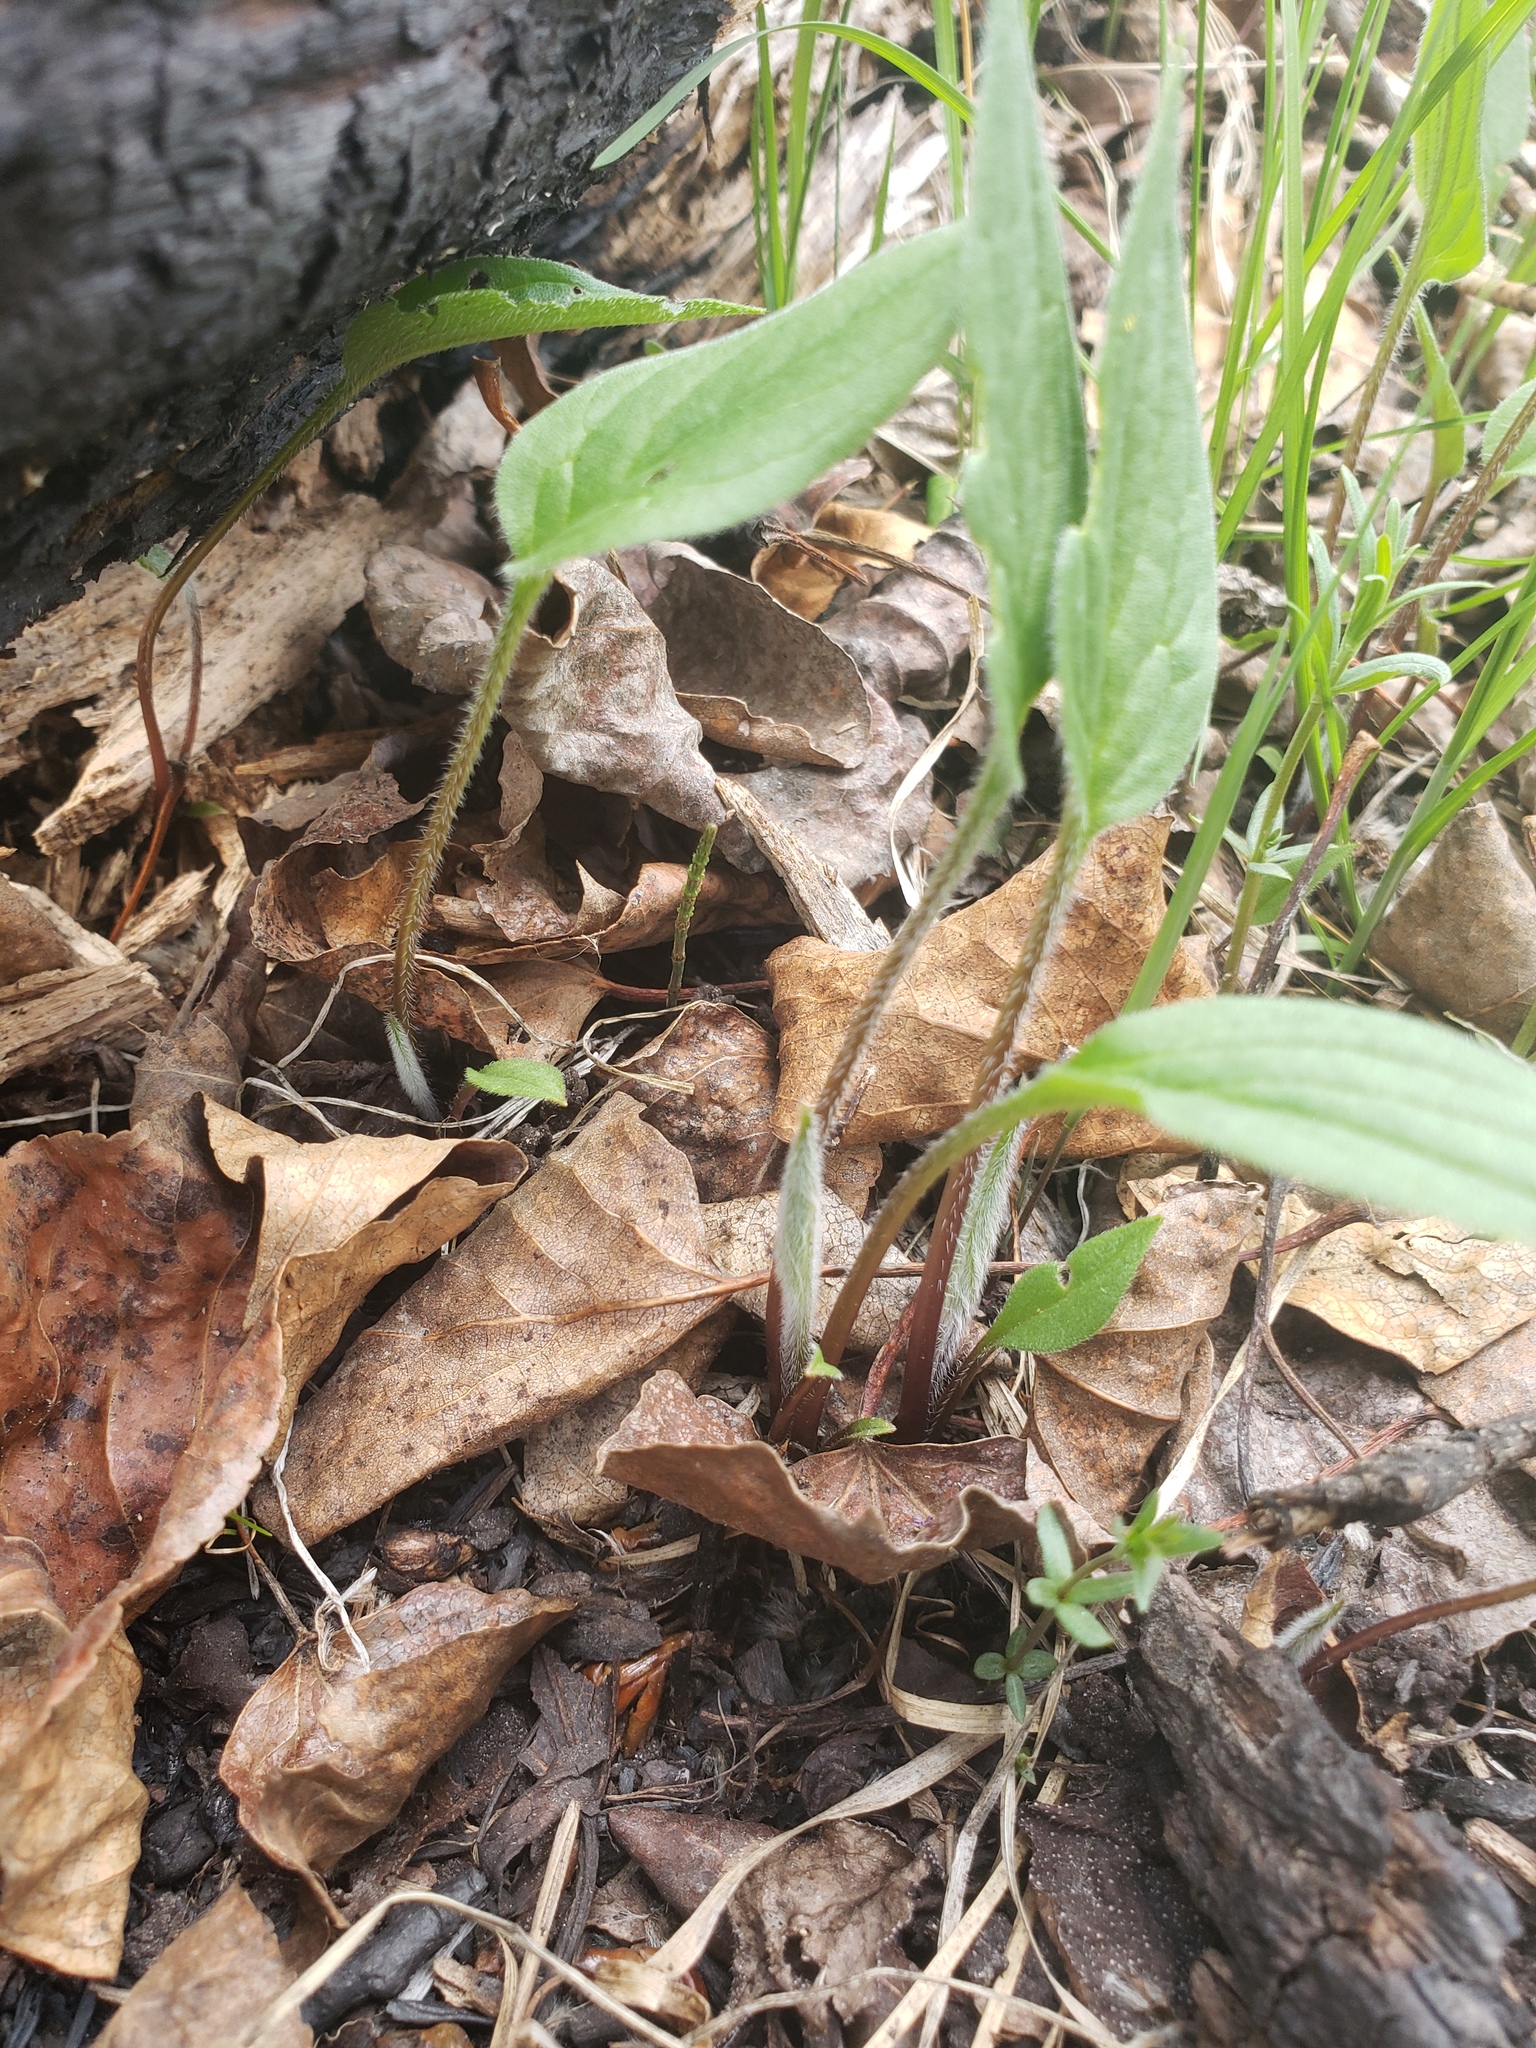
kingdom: Plantae
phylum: Tracheophyta
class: Magnoliopsida
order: Boraginales
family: Boraginaceae
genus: Mertensia
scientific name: Mertensia paniculata
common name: Panicled bluebells
